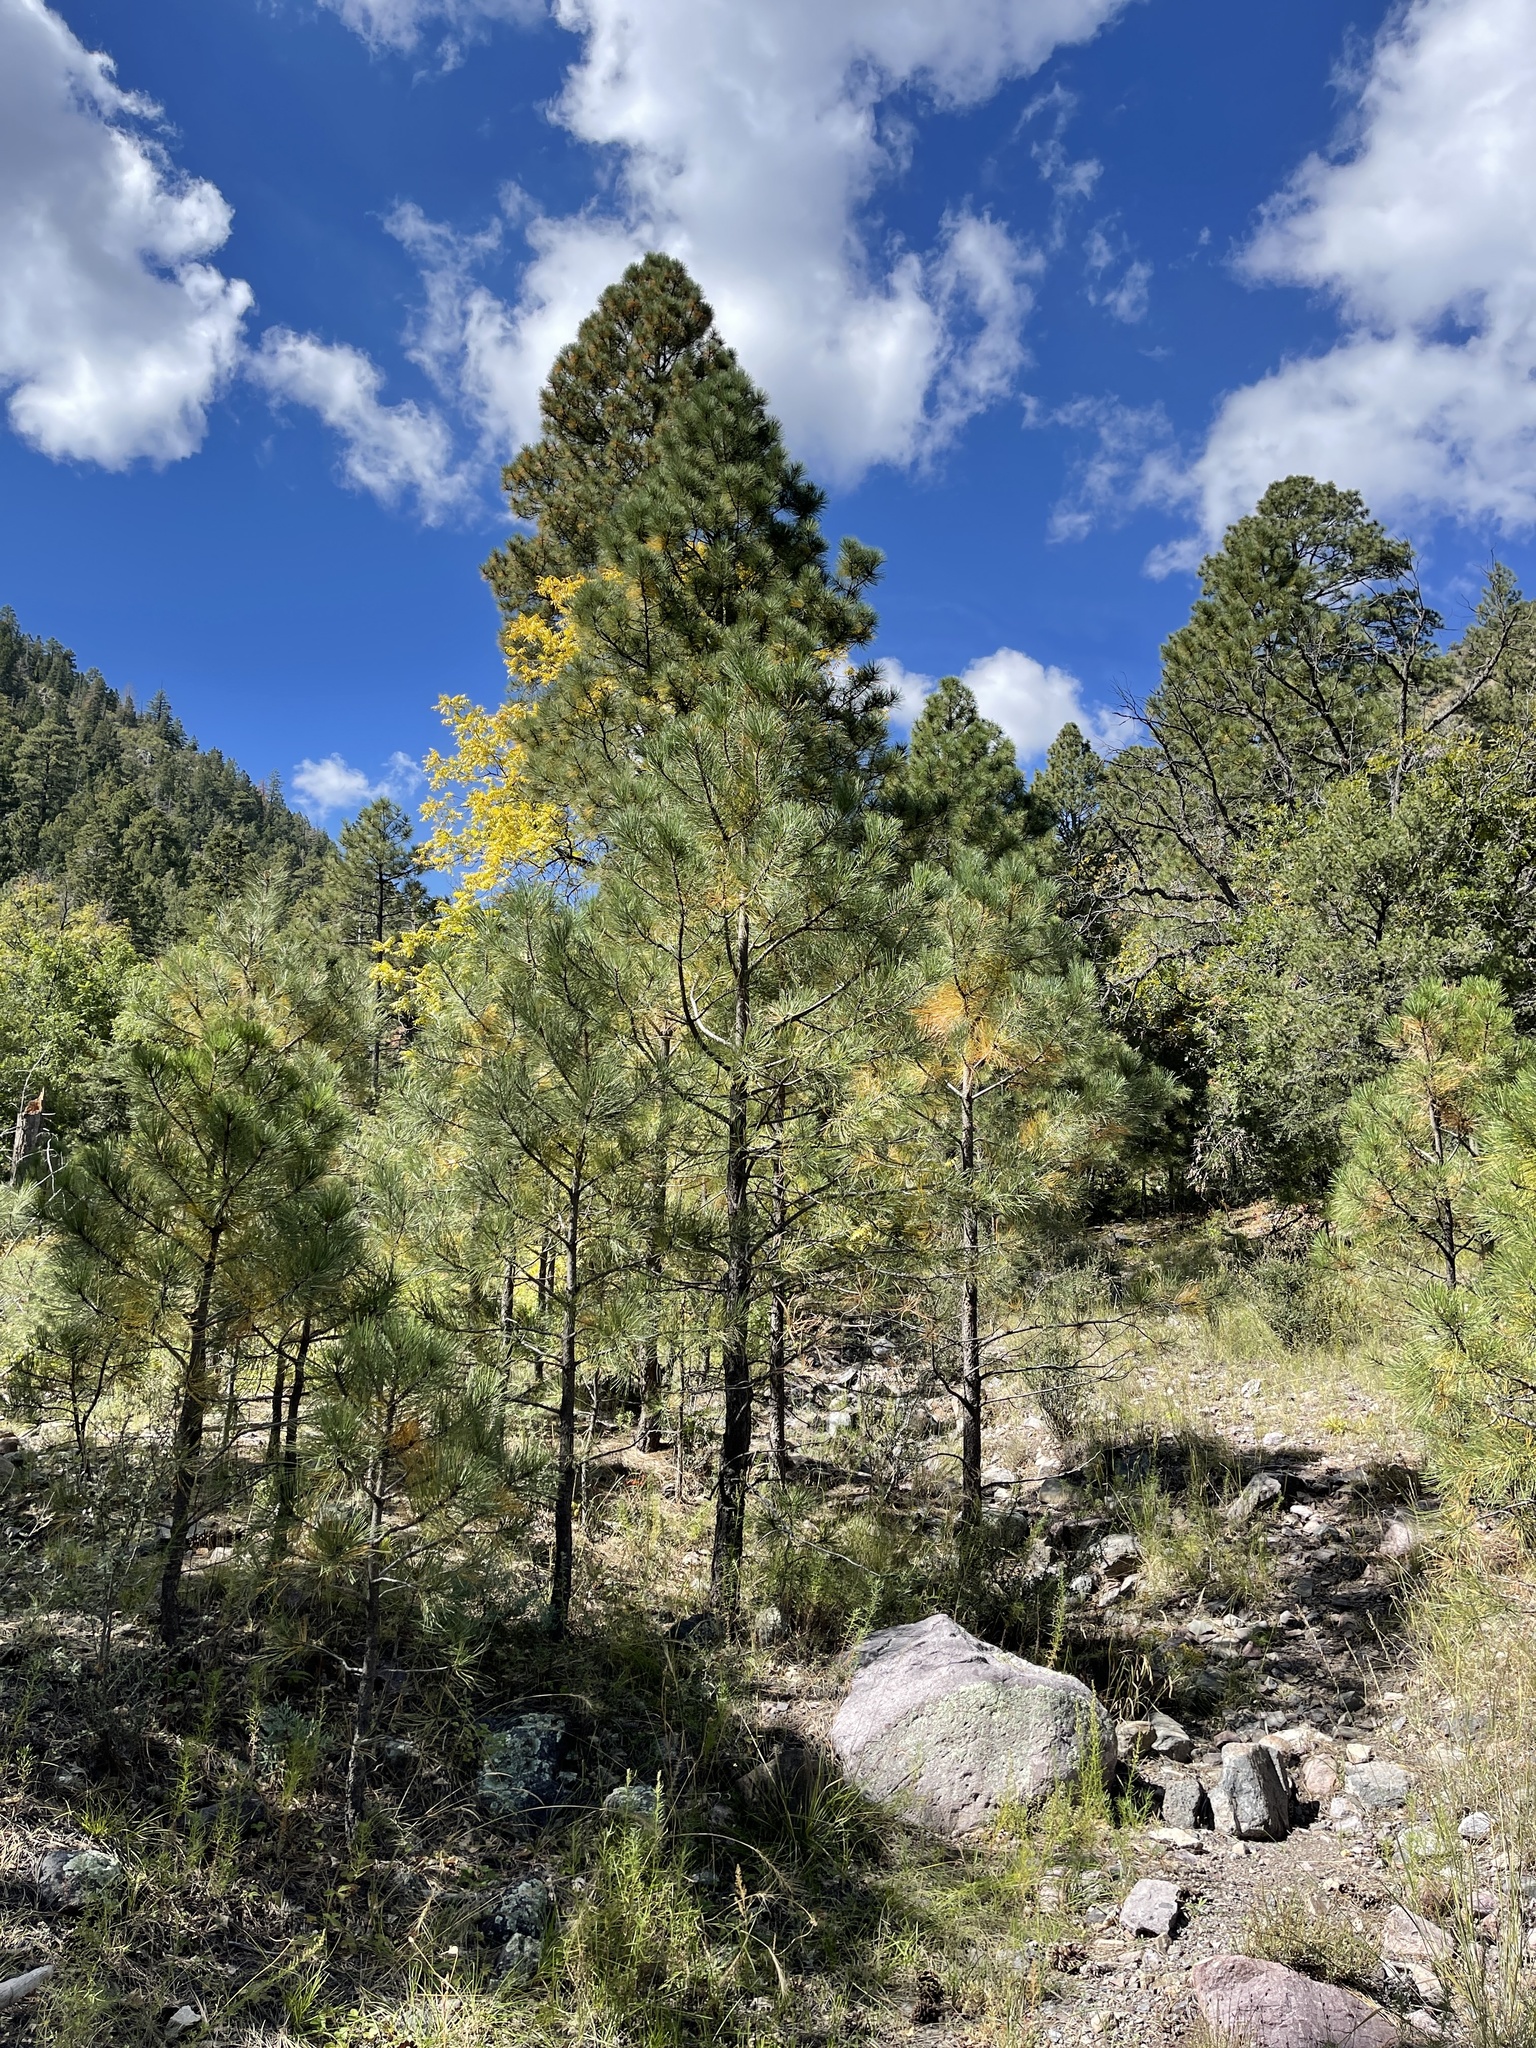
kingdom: Plantae
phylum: Tracheophyta
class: Pinopsida
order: Pinales
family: Pinaceae
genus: Pinus
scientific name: Pinus ponderosa
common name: Western yellow-pine
